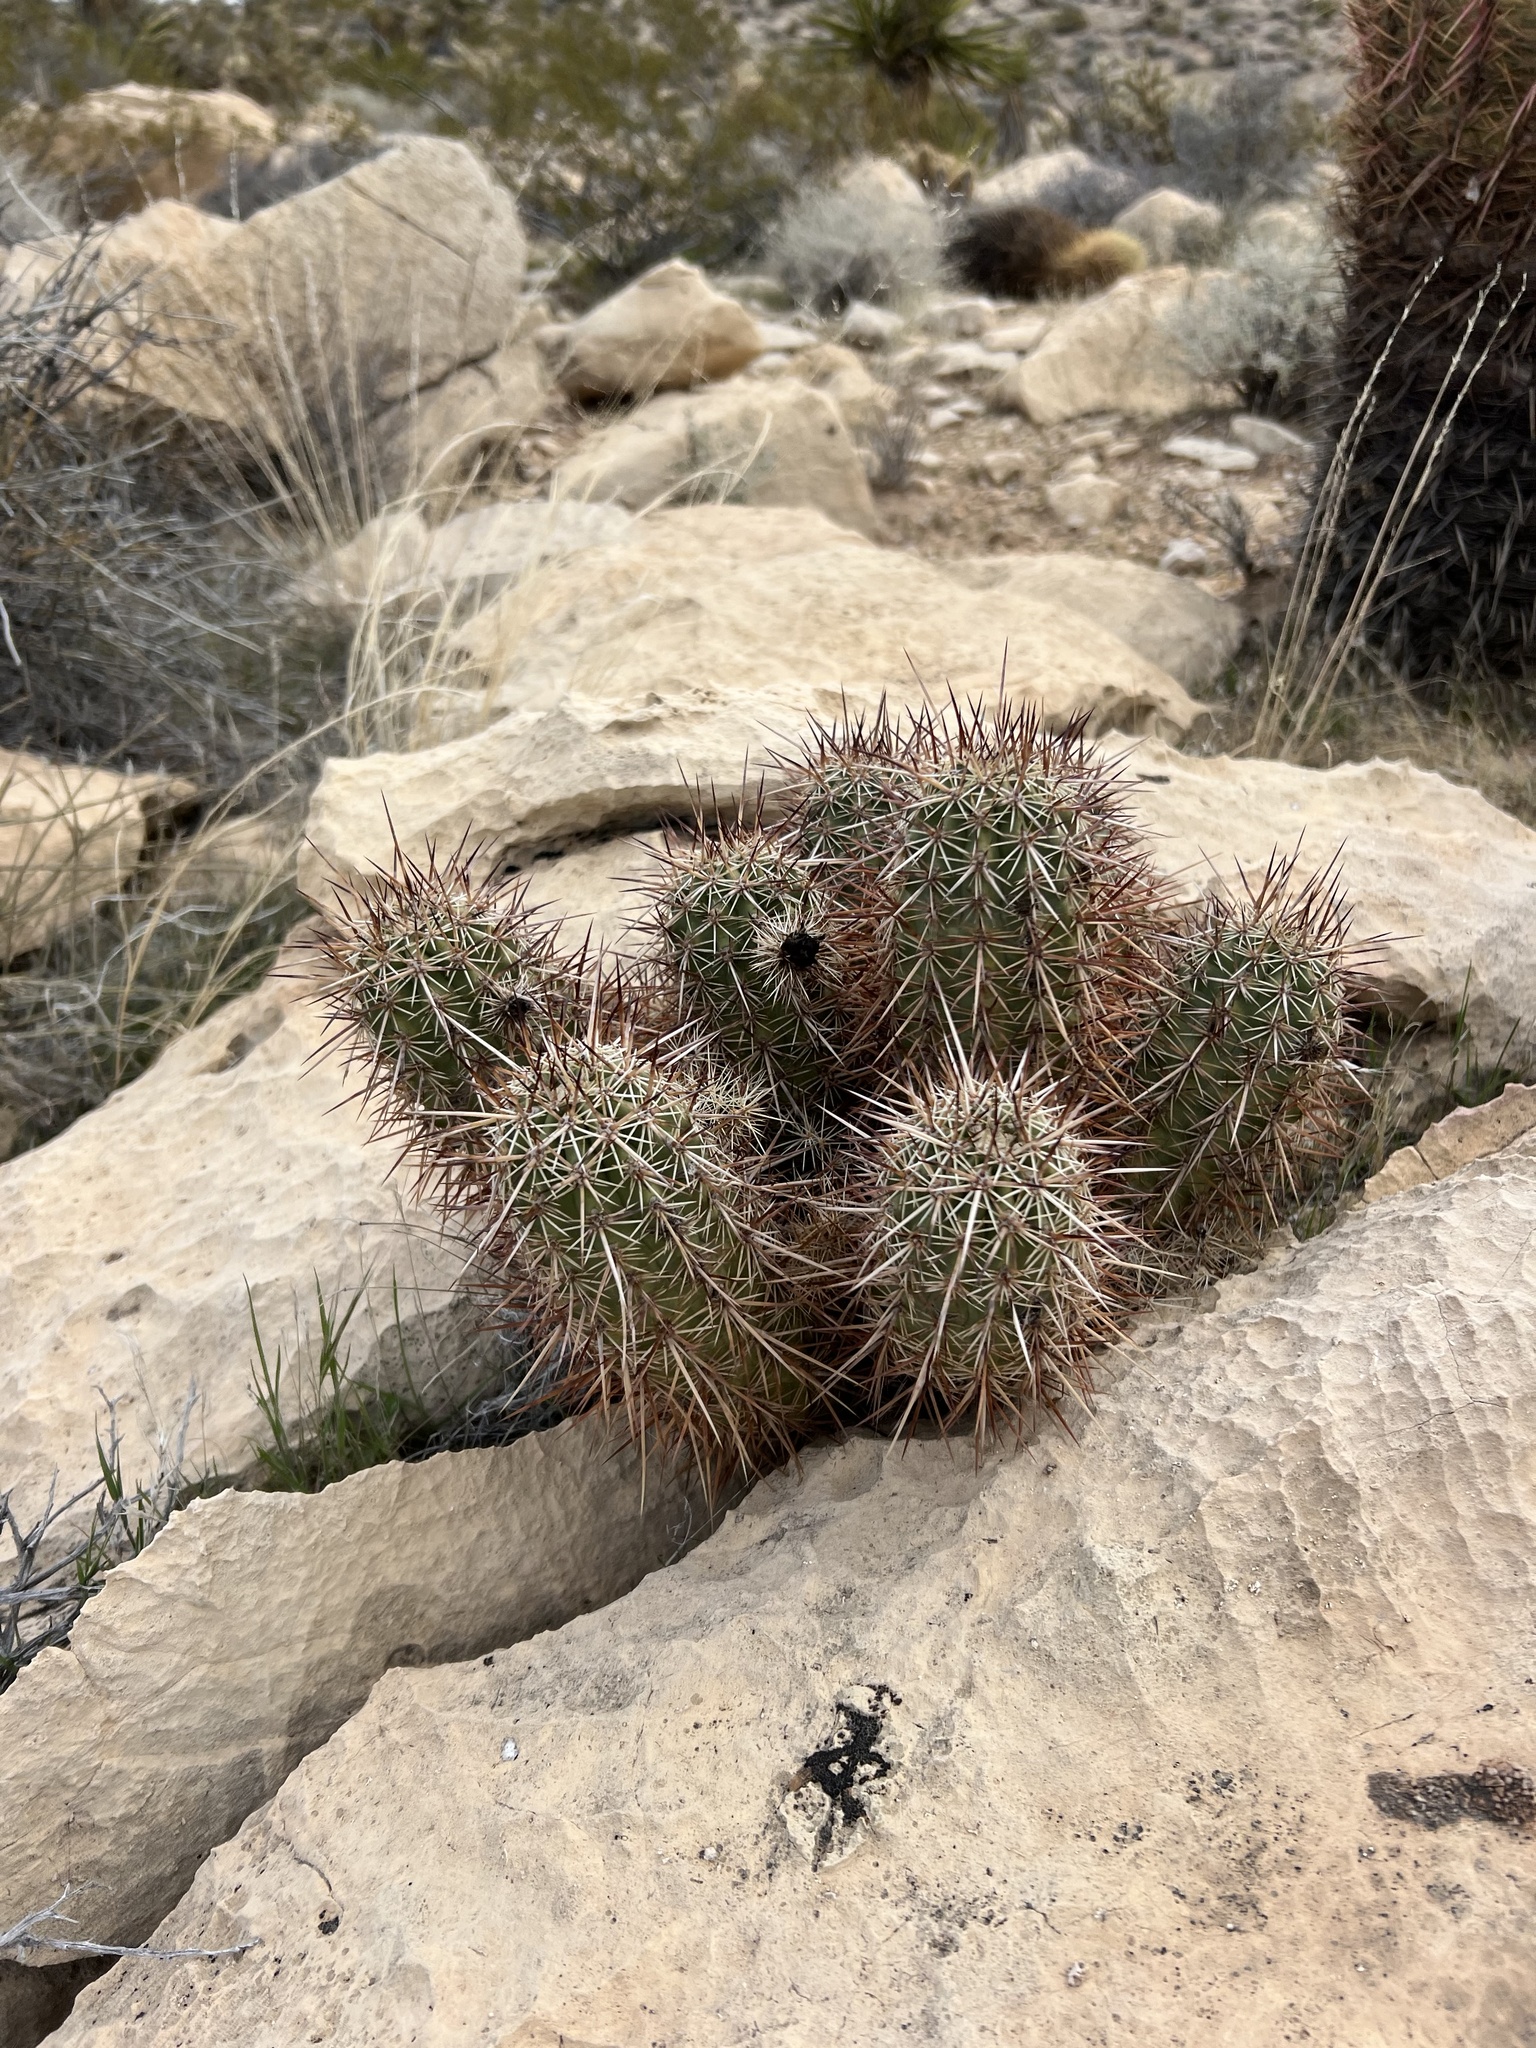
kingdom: Plantae
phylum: Tracheophyta
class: Magnoliopsida
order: Caryophyllales
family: Cactaceae
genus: Echinocereus
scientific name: Echinocereus engelmannii
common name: Engelmann's hedgehog cactus
